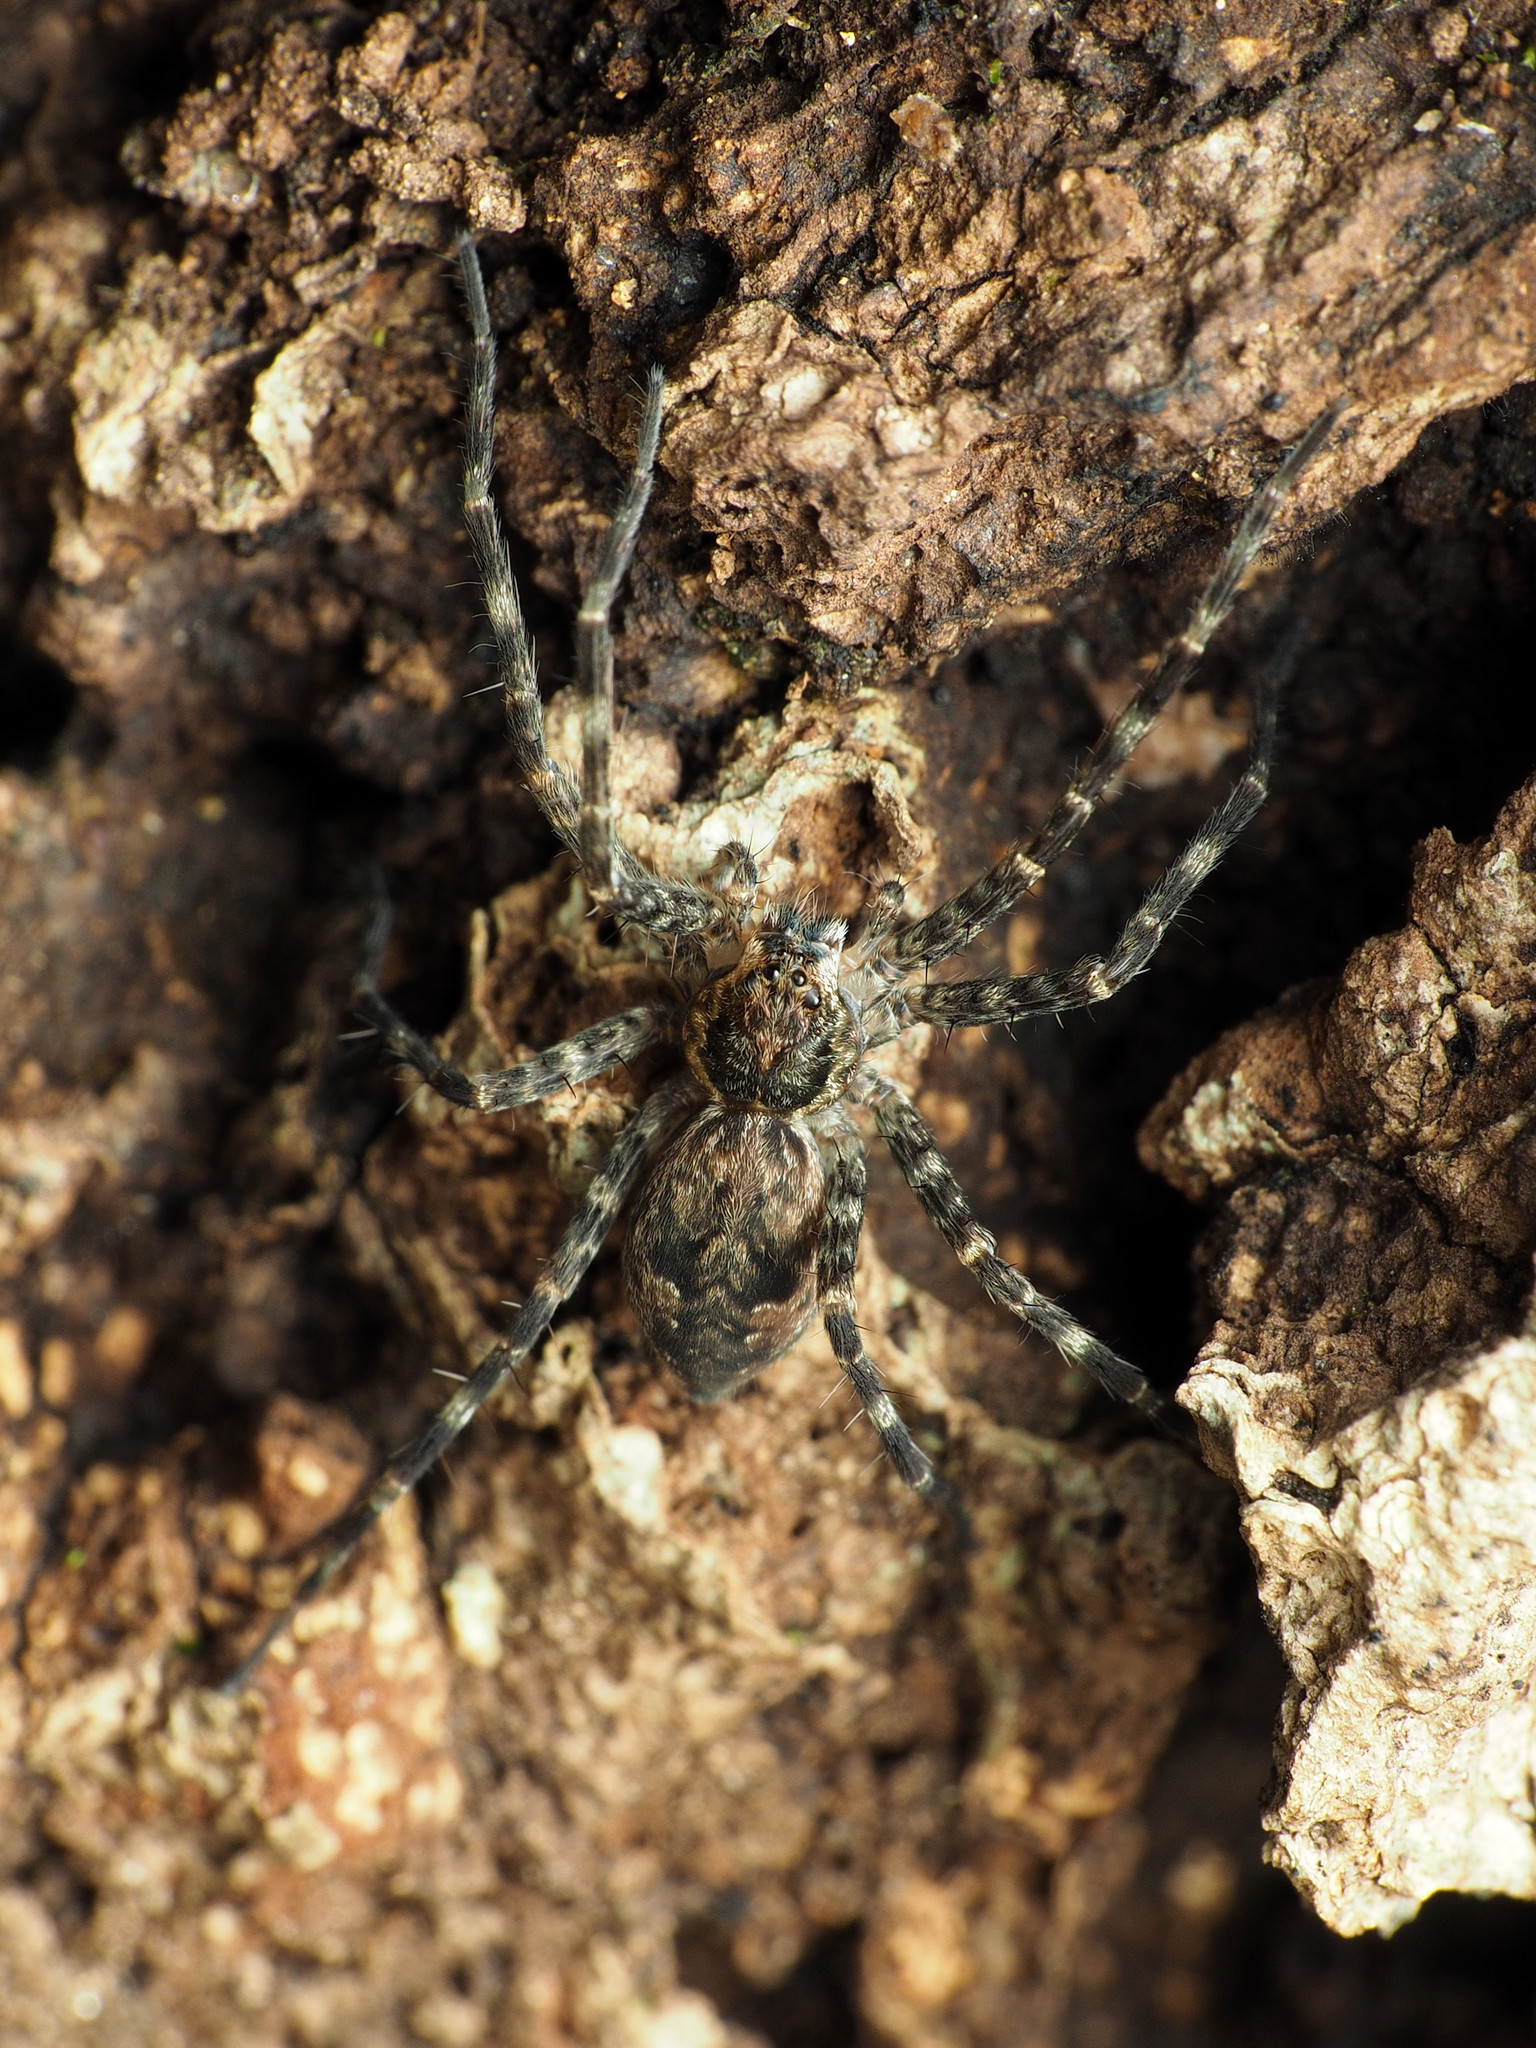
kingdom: Animalia
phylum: Arthropoda
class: Arachnida
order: Araneae
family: Pisauridae
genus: Dolomedes
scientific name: Dolomedes tenebrosus
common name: Dark fishing spider
